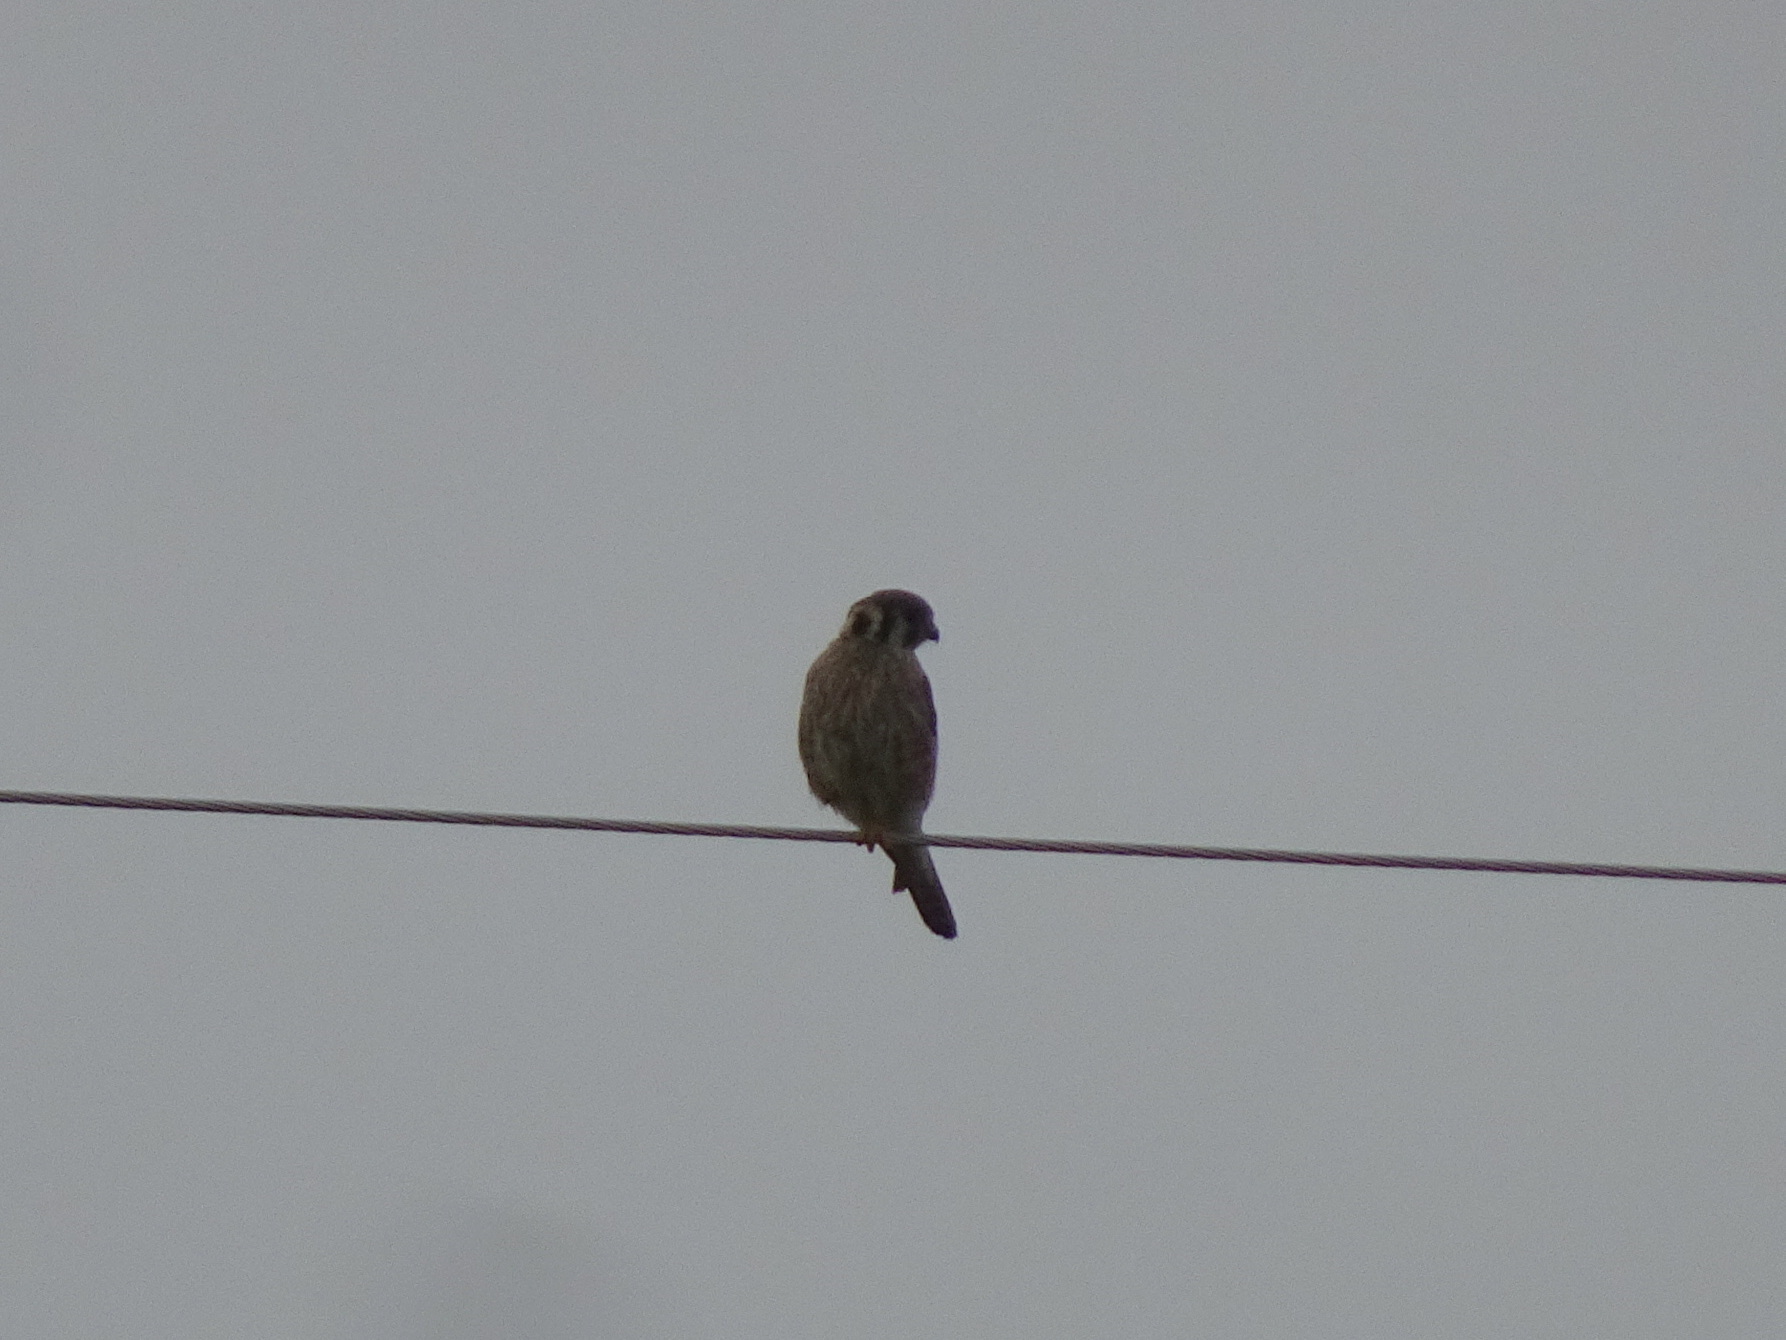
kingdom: Animalia
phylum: Chordata
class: Aves
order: Falconiformes
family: Falconidae
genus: Falco
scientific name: Falco sparverius
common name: American kestrel
